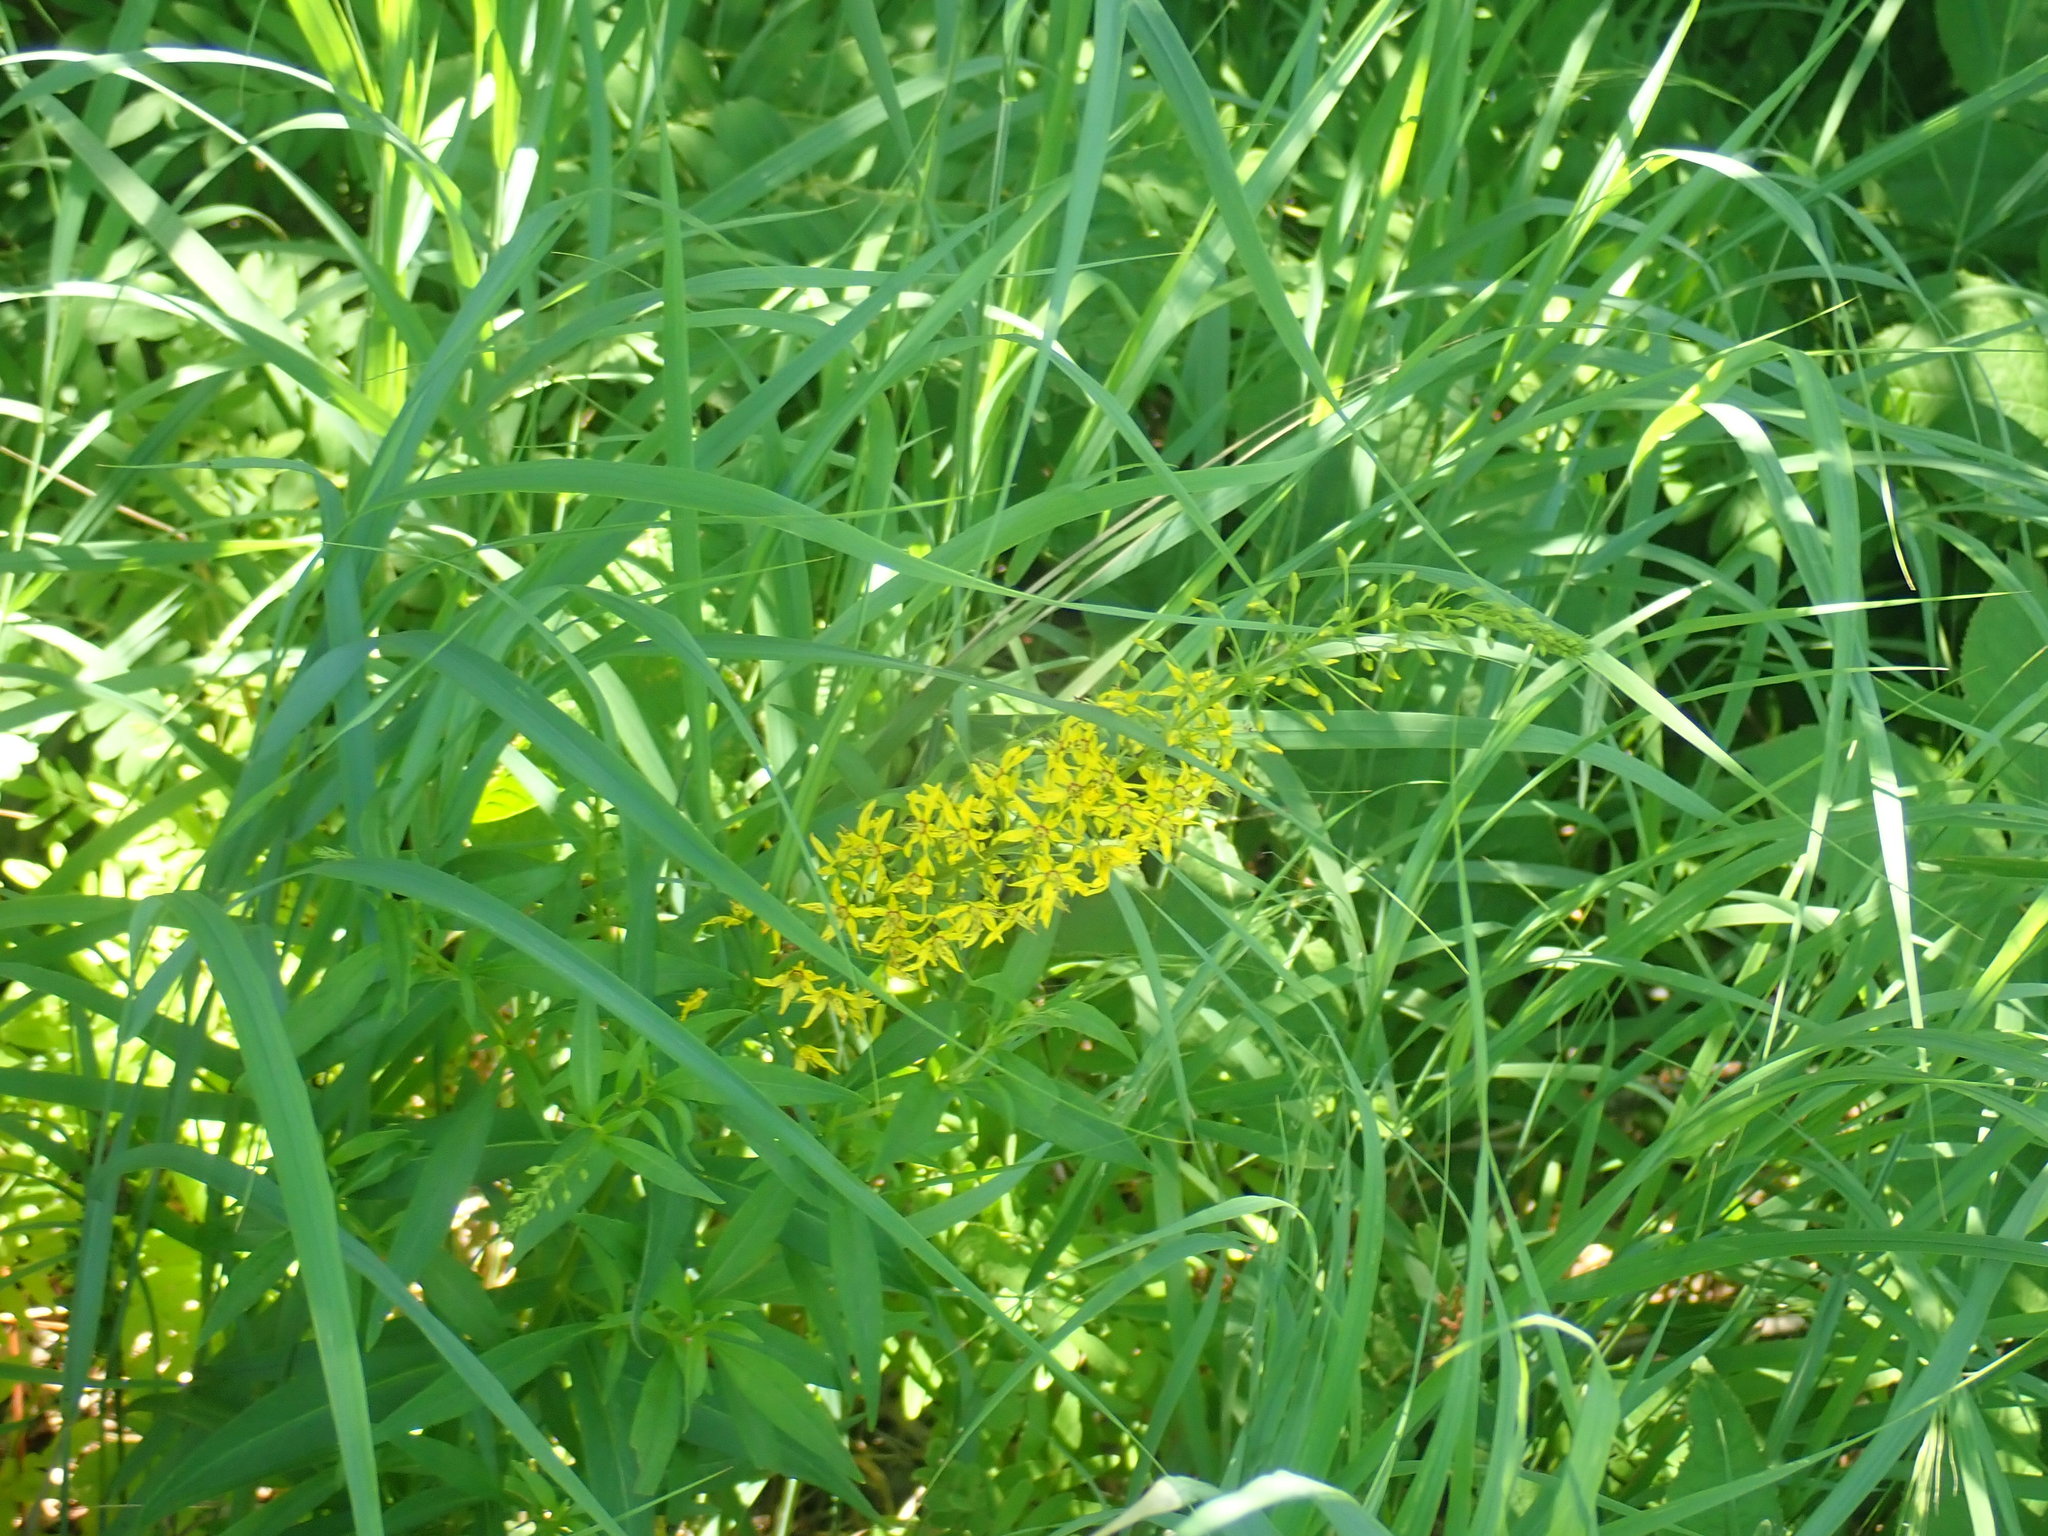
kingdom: Plantae
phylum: Tracheophyta
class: Magnoliopsida
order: Ericales
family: Primulaceae
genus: Lysimachia
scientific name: Lysimachia terrestris
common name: Lake loosestrife
